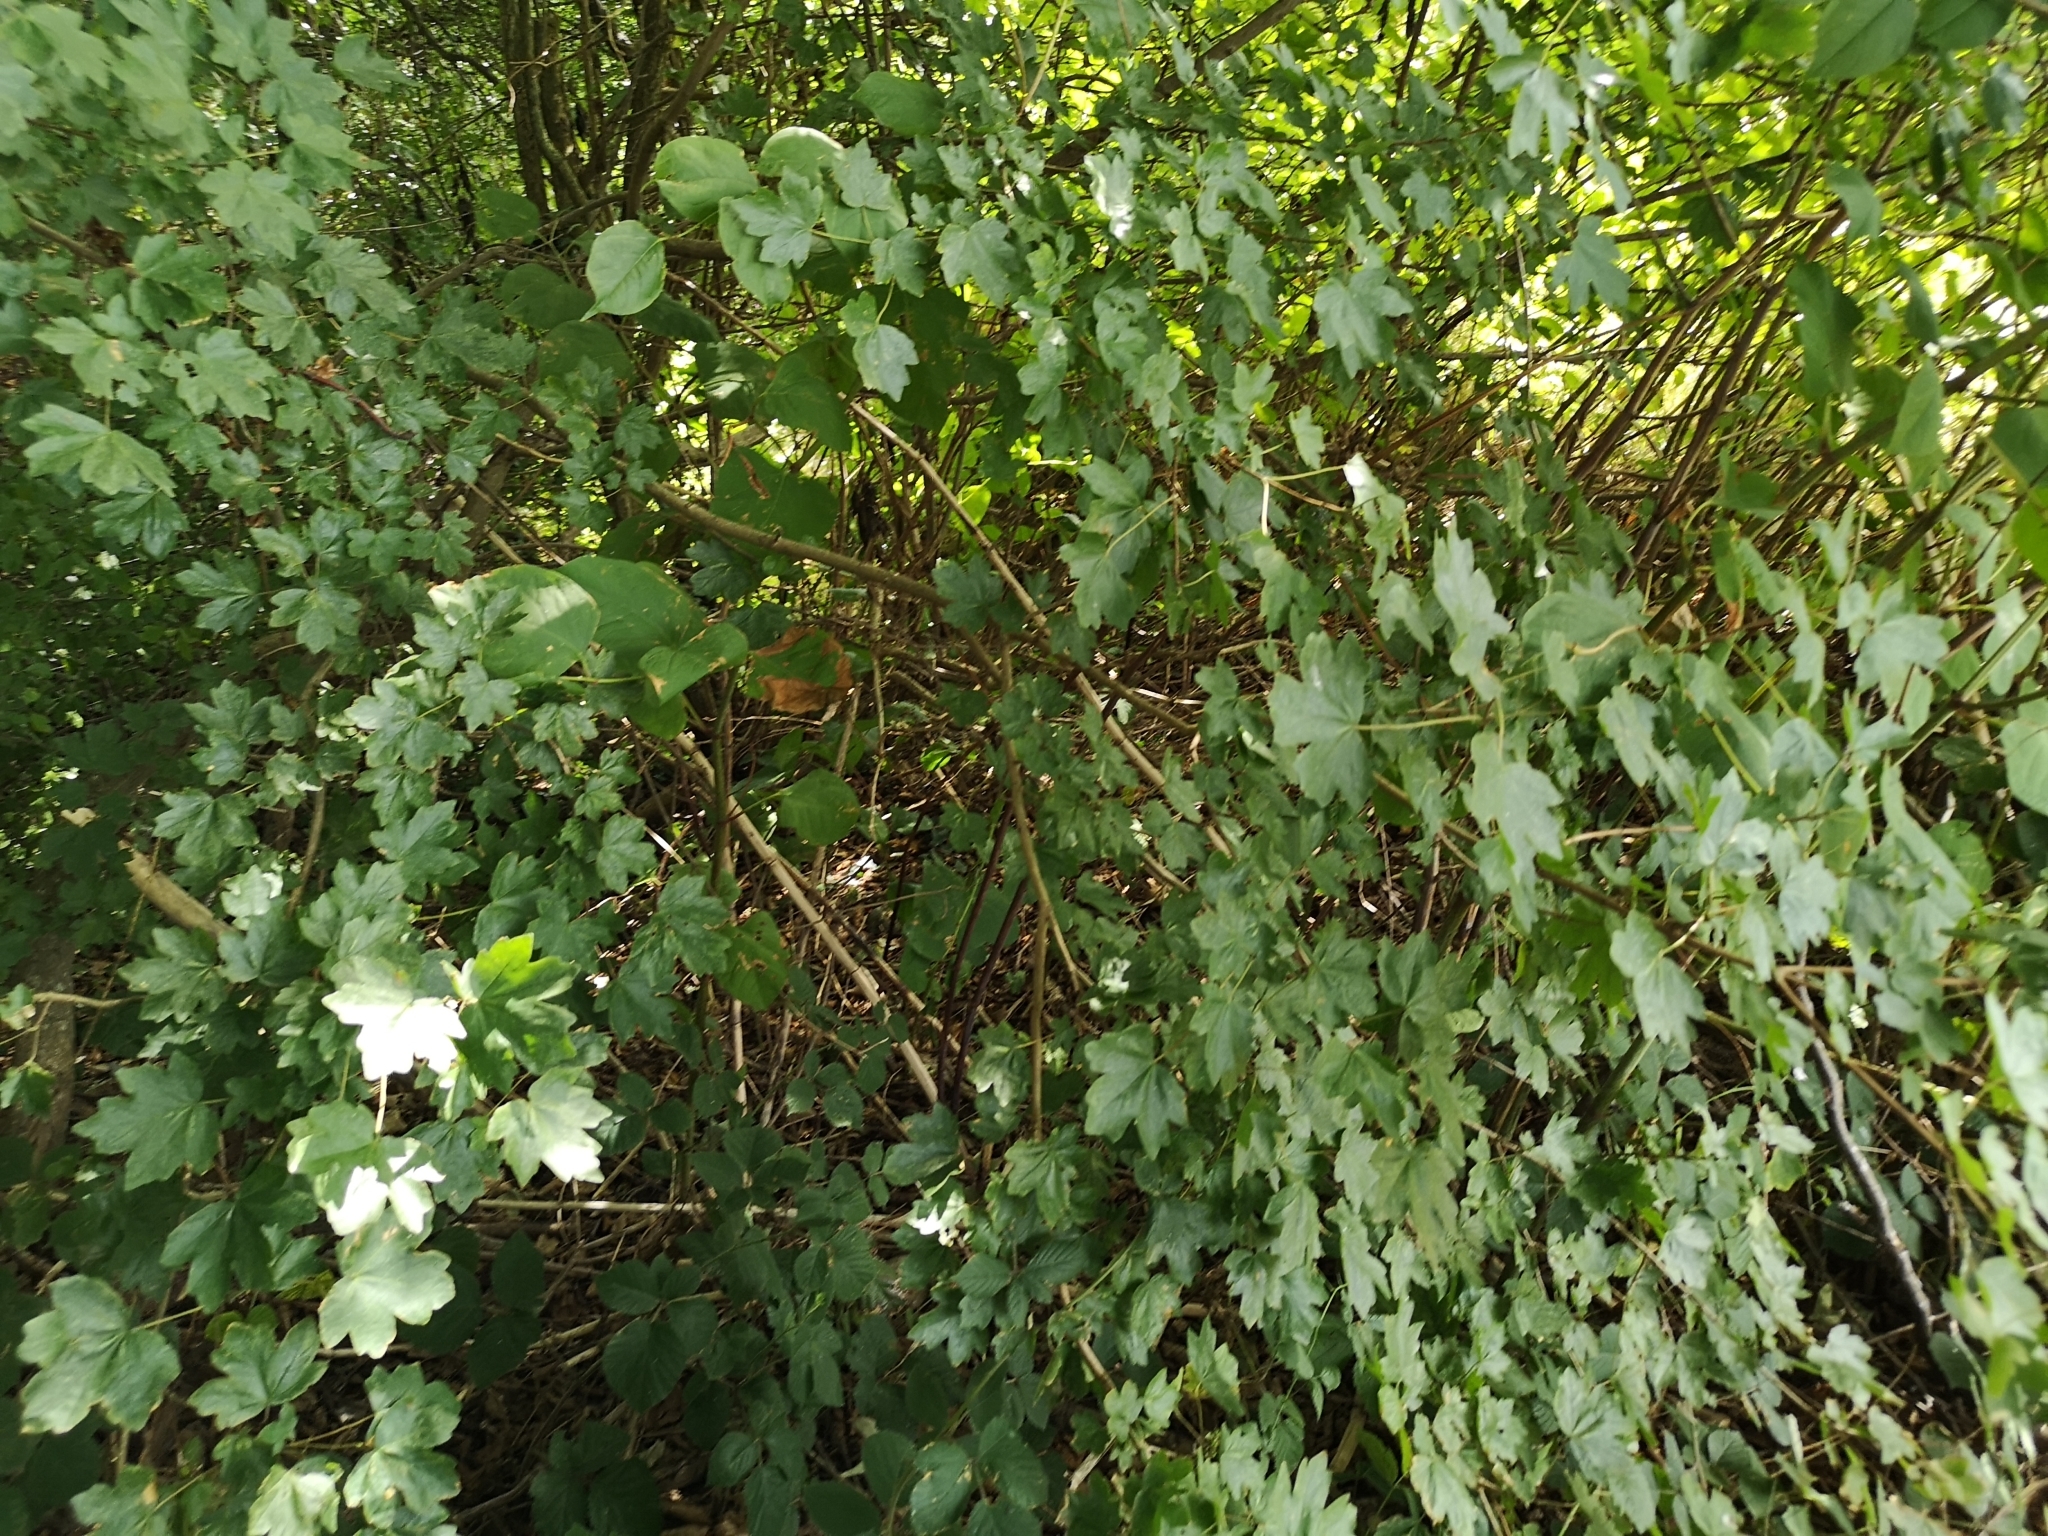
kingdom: Plantae
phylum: Tracheophyta
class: Magnoliopsida
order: Sapindales
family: Sapindaceae
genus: Acer
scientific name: Acer campestre
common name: Field maple
